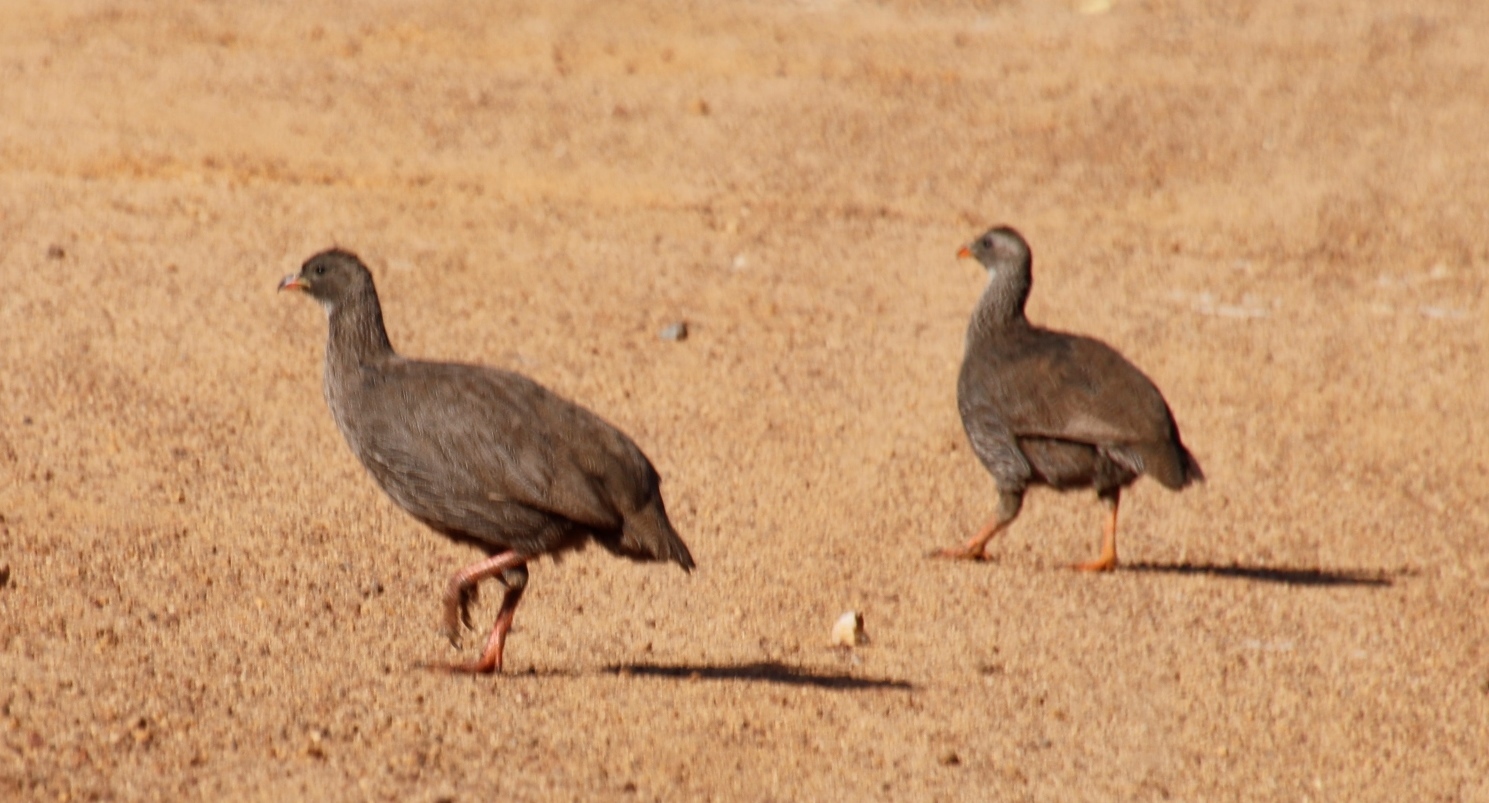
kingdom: Animalia
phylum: Chordata
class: Aves
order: Galliformes
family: Phasianidae
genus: Pternistis
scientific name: Pternistis capensis
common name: Cape spurfowl
